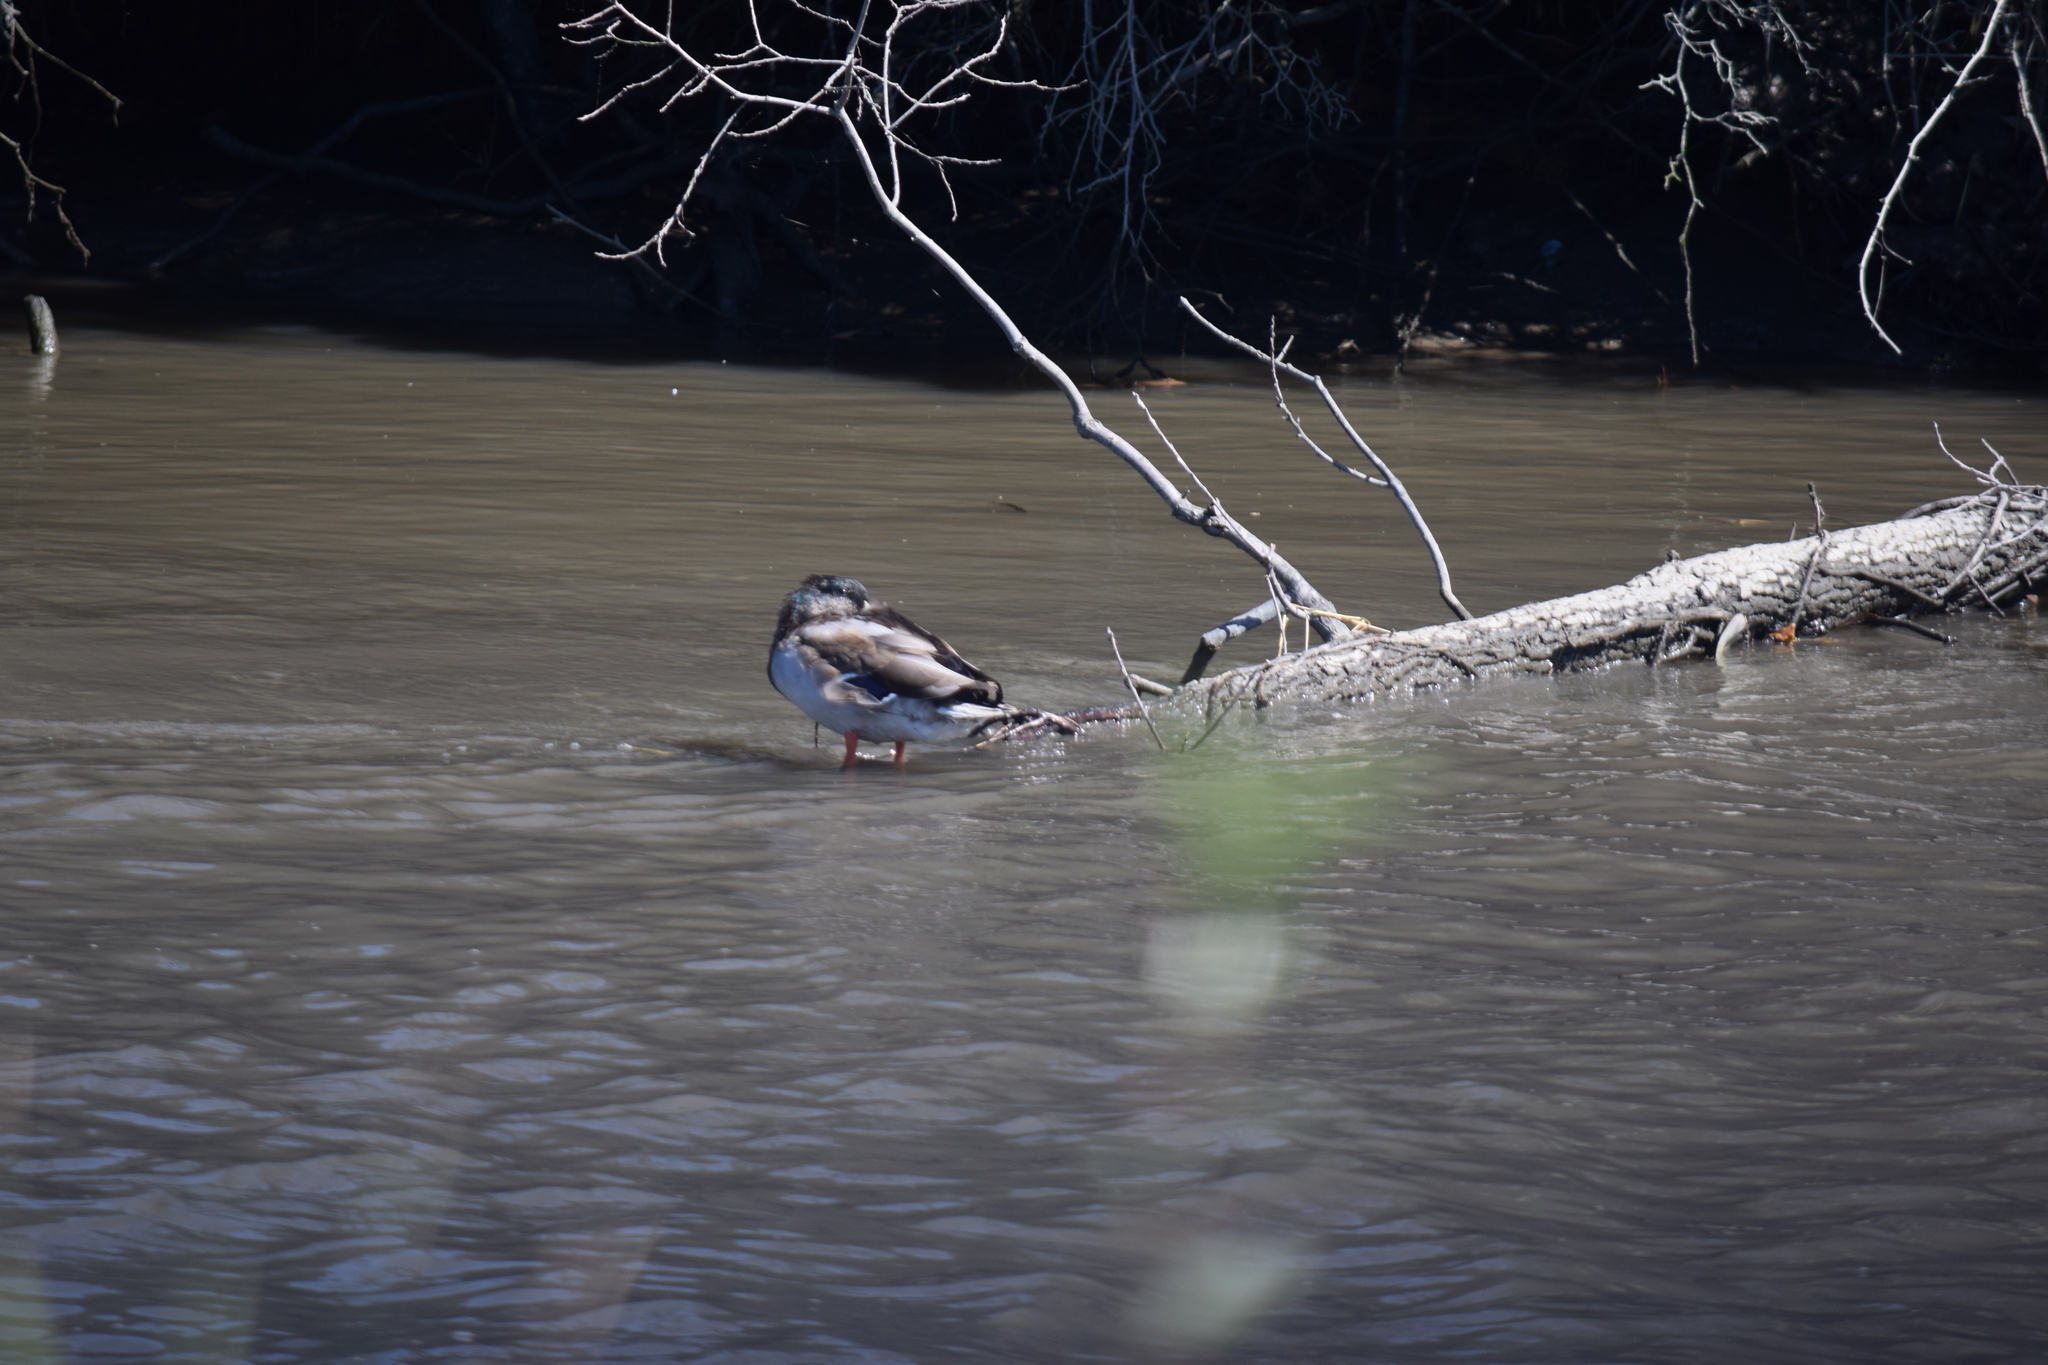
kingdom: Animalia
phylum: Chordata
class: Aves
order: Anseriformes
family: Anatidae
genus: Anas
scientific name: Anas platyrhynchos
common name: Mallard
